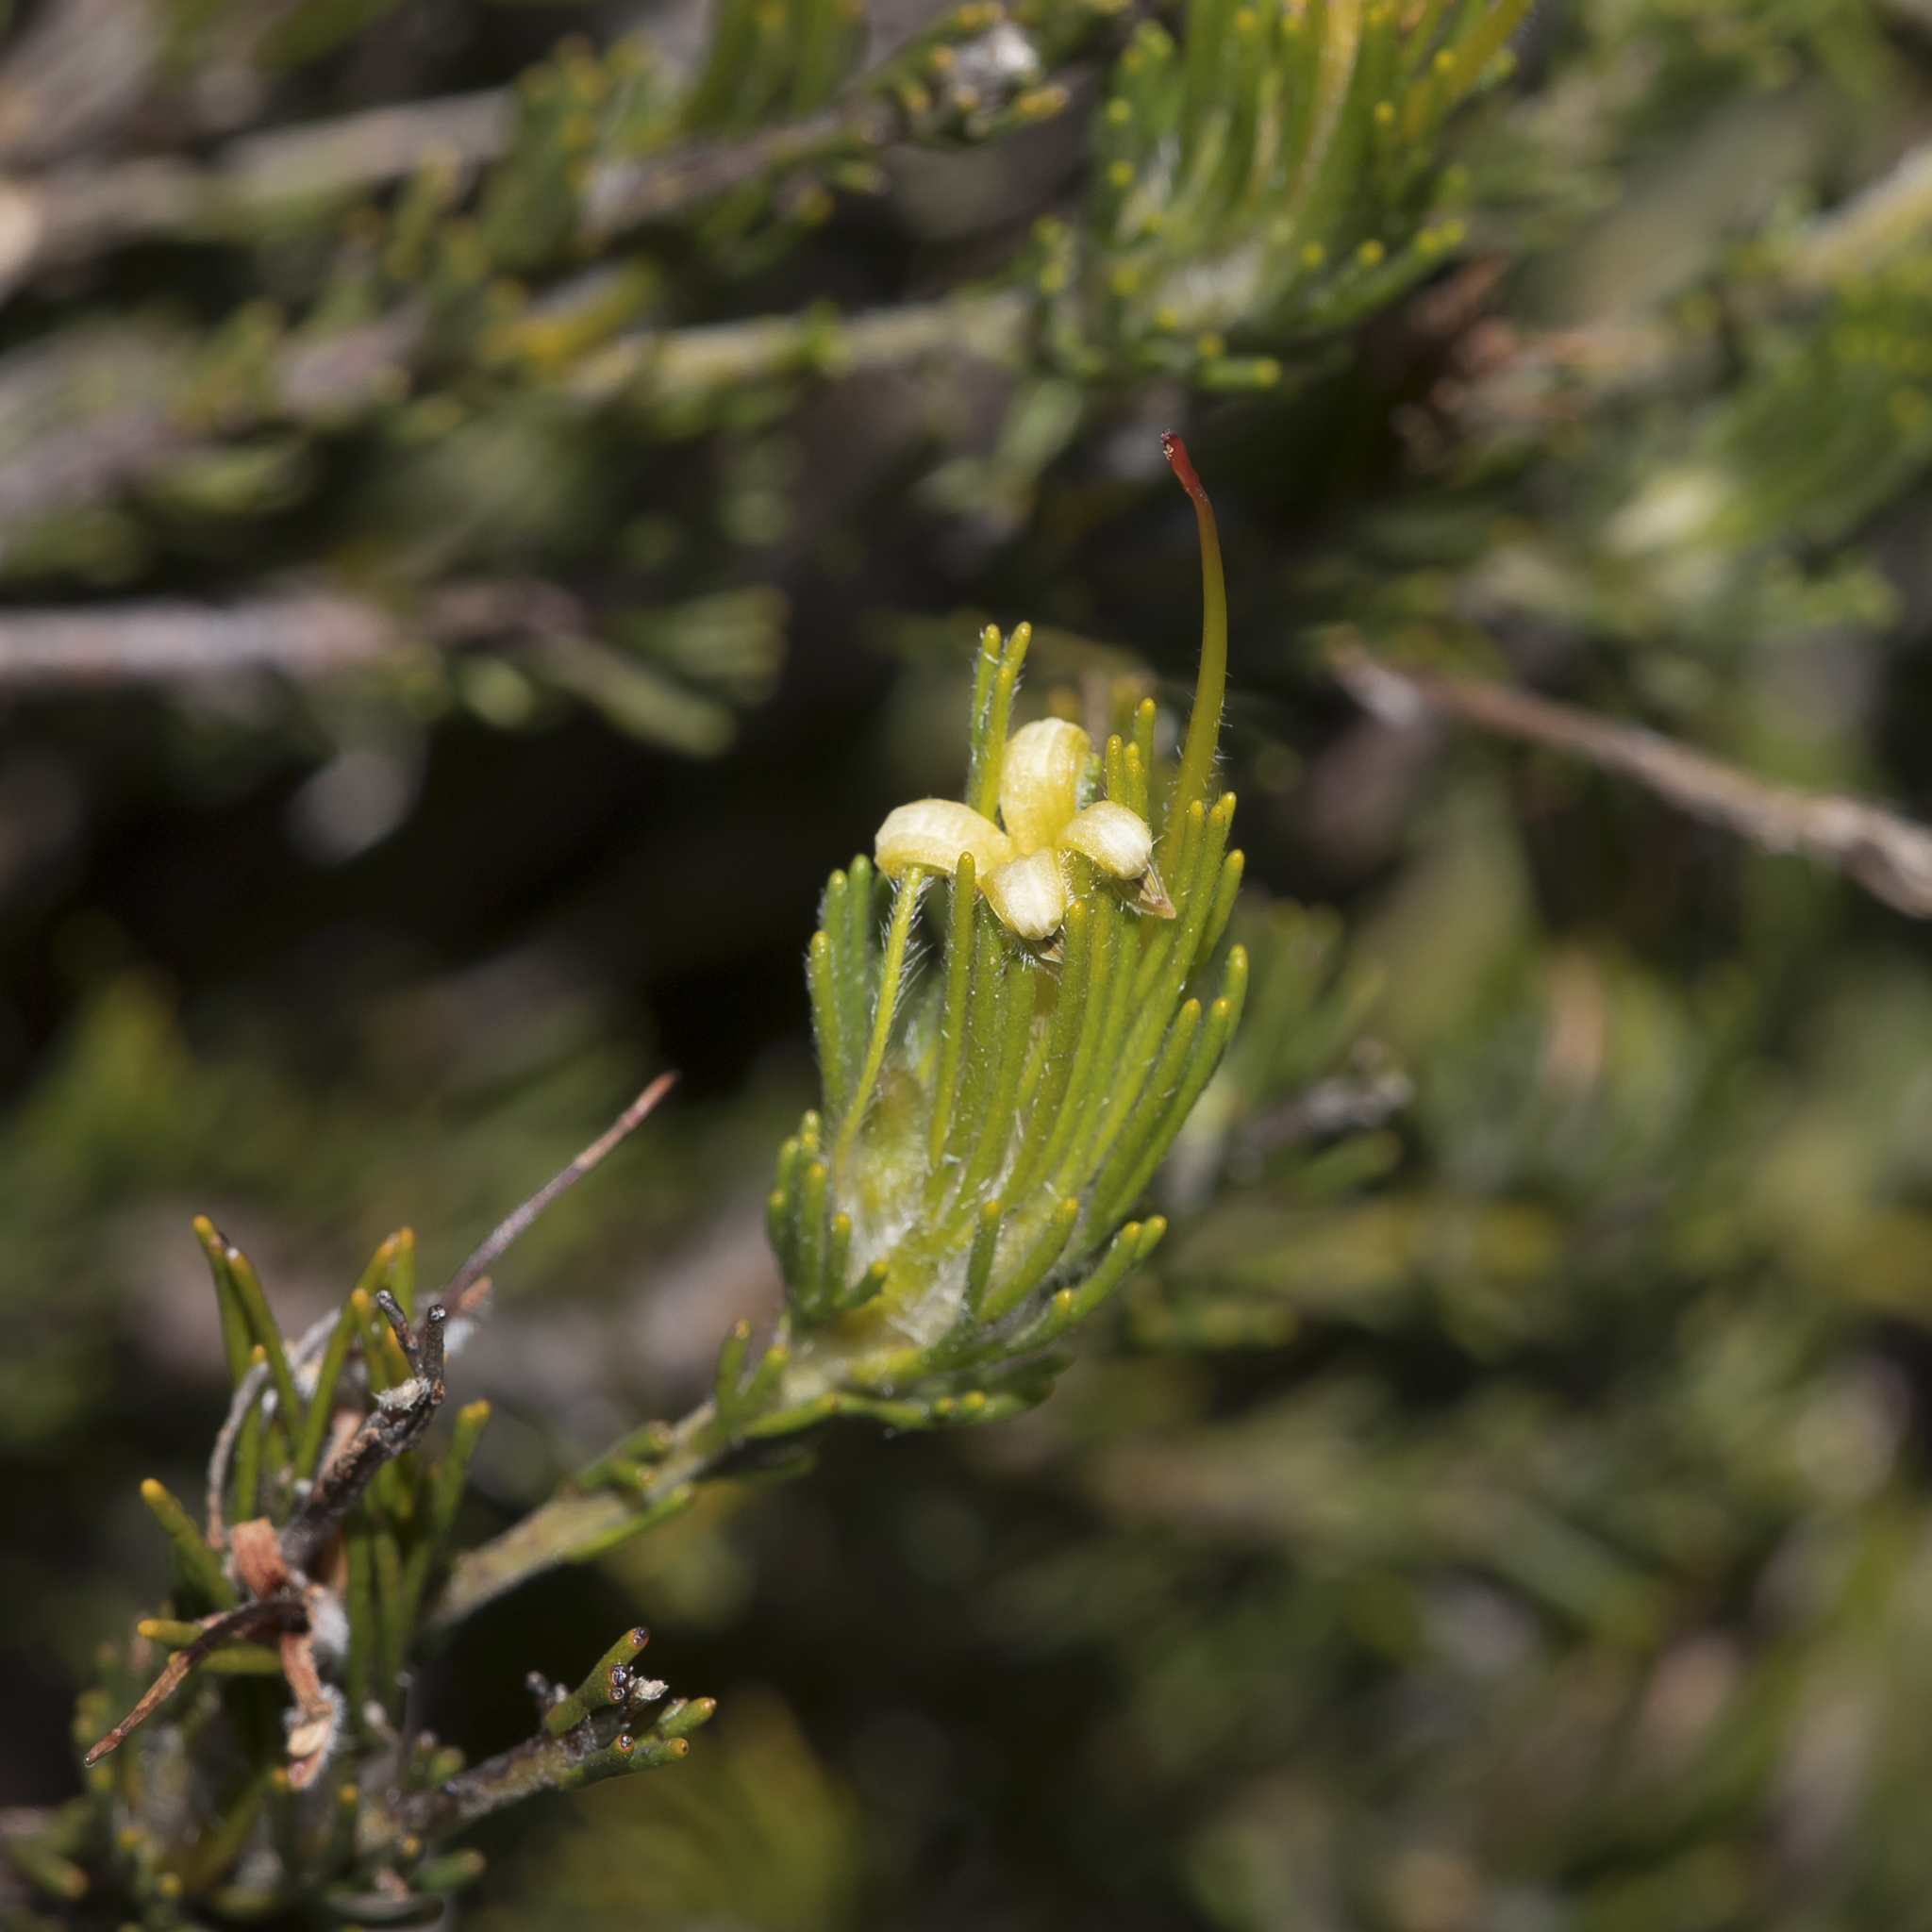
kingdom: Plantae
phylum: Tracheophyta
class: Magnoliopsida
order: Proteales
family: Proteaceae
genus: Adenanthos
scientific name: Adenanthos terminalis
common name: Yellow gland-flower
